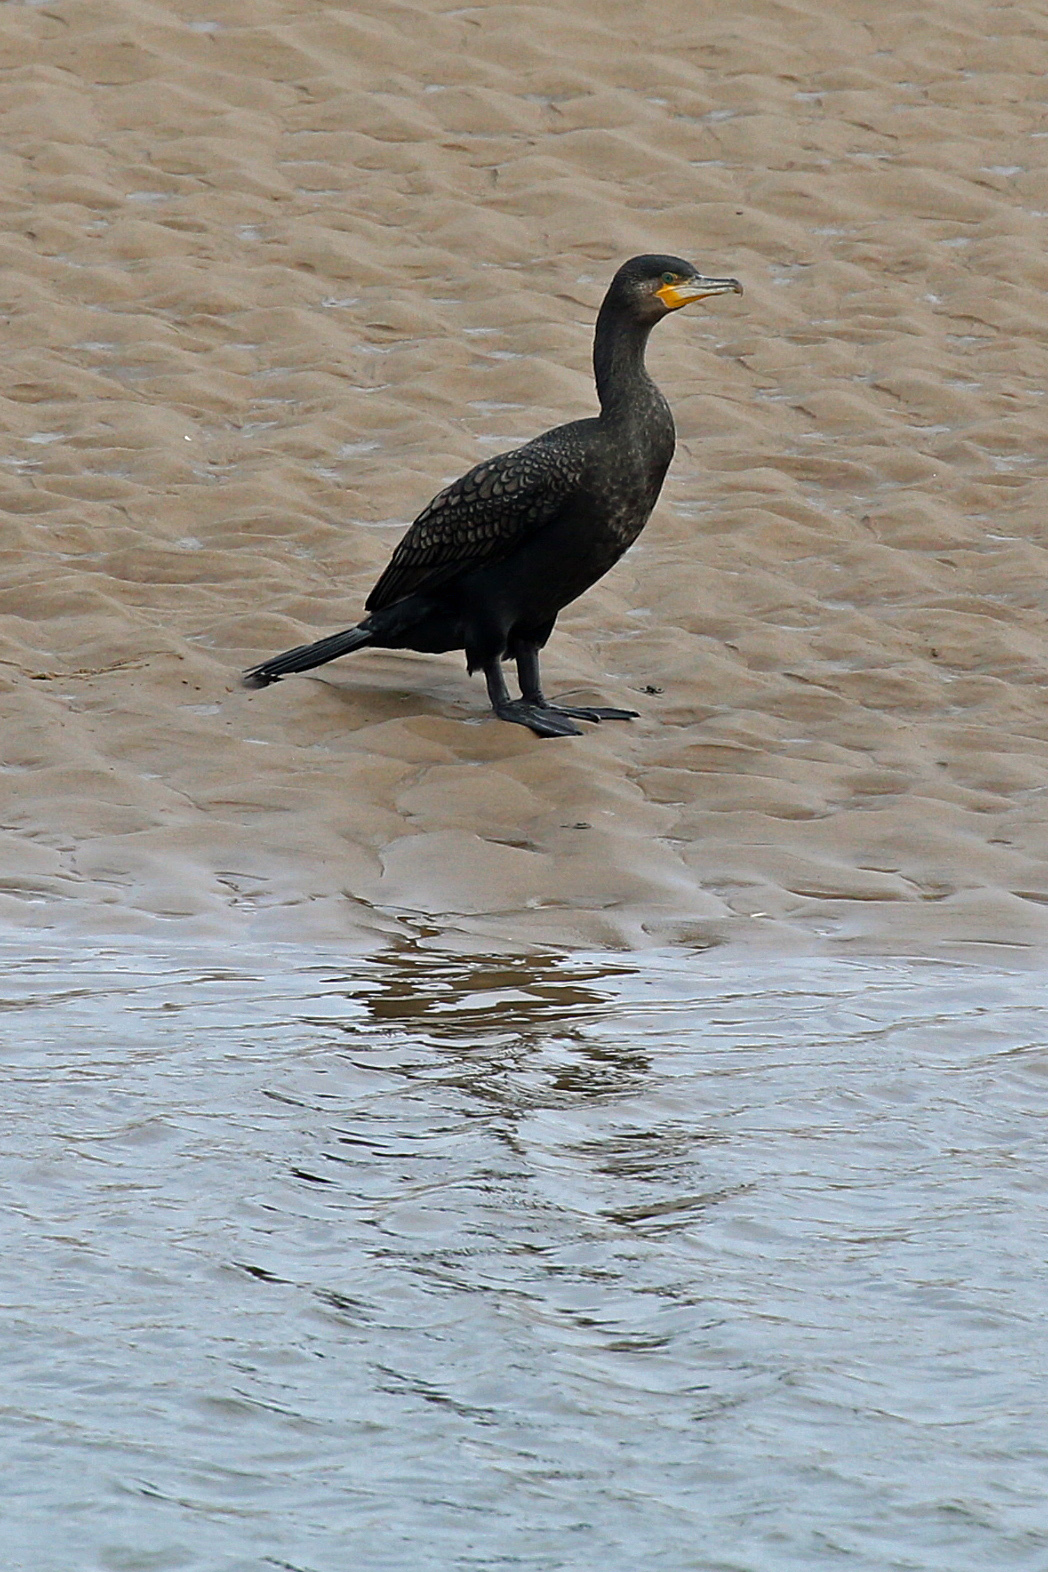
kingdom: Animalia
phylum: Chordata
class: Aves
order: Suliformes
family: Phalacrocoracidae
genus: Phalacrocorax
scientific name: Phalacrocorax carbo
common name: Great cormorant
